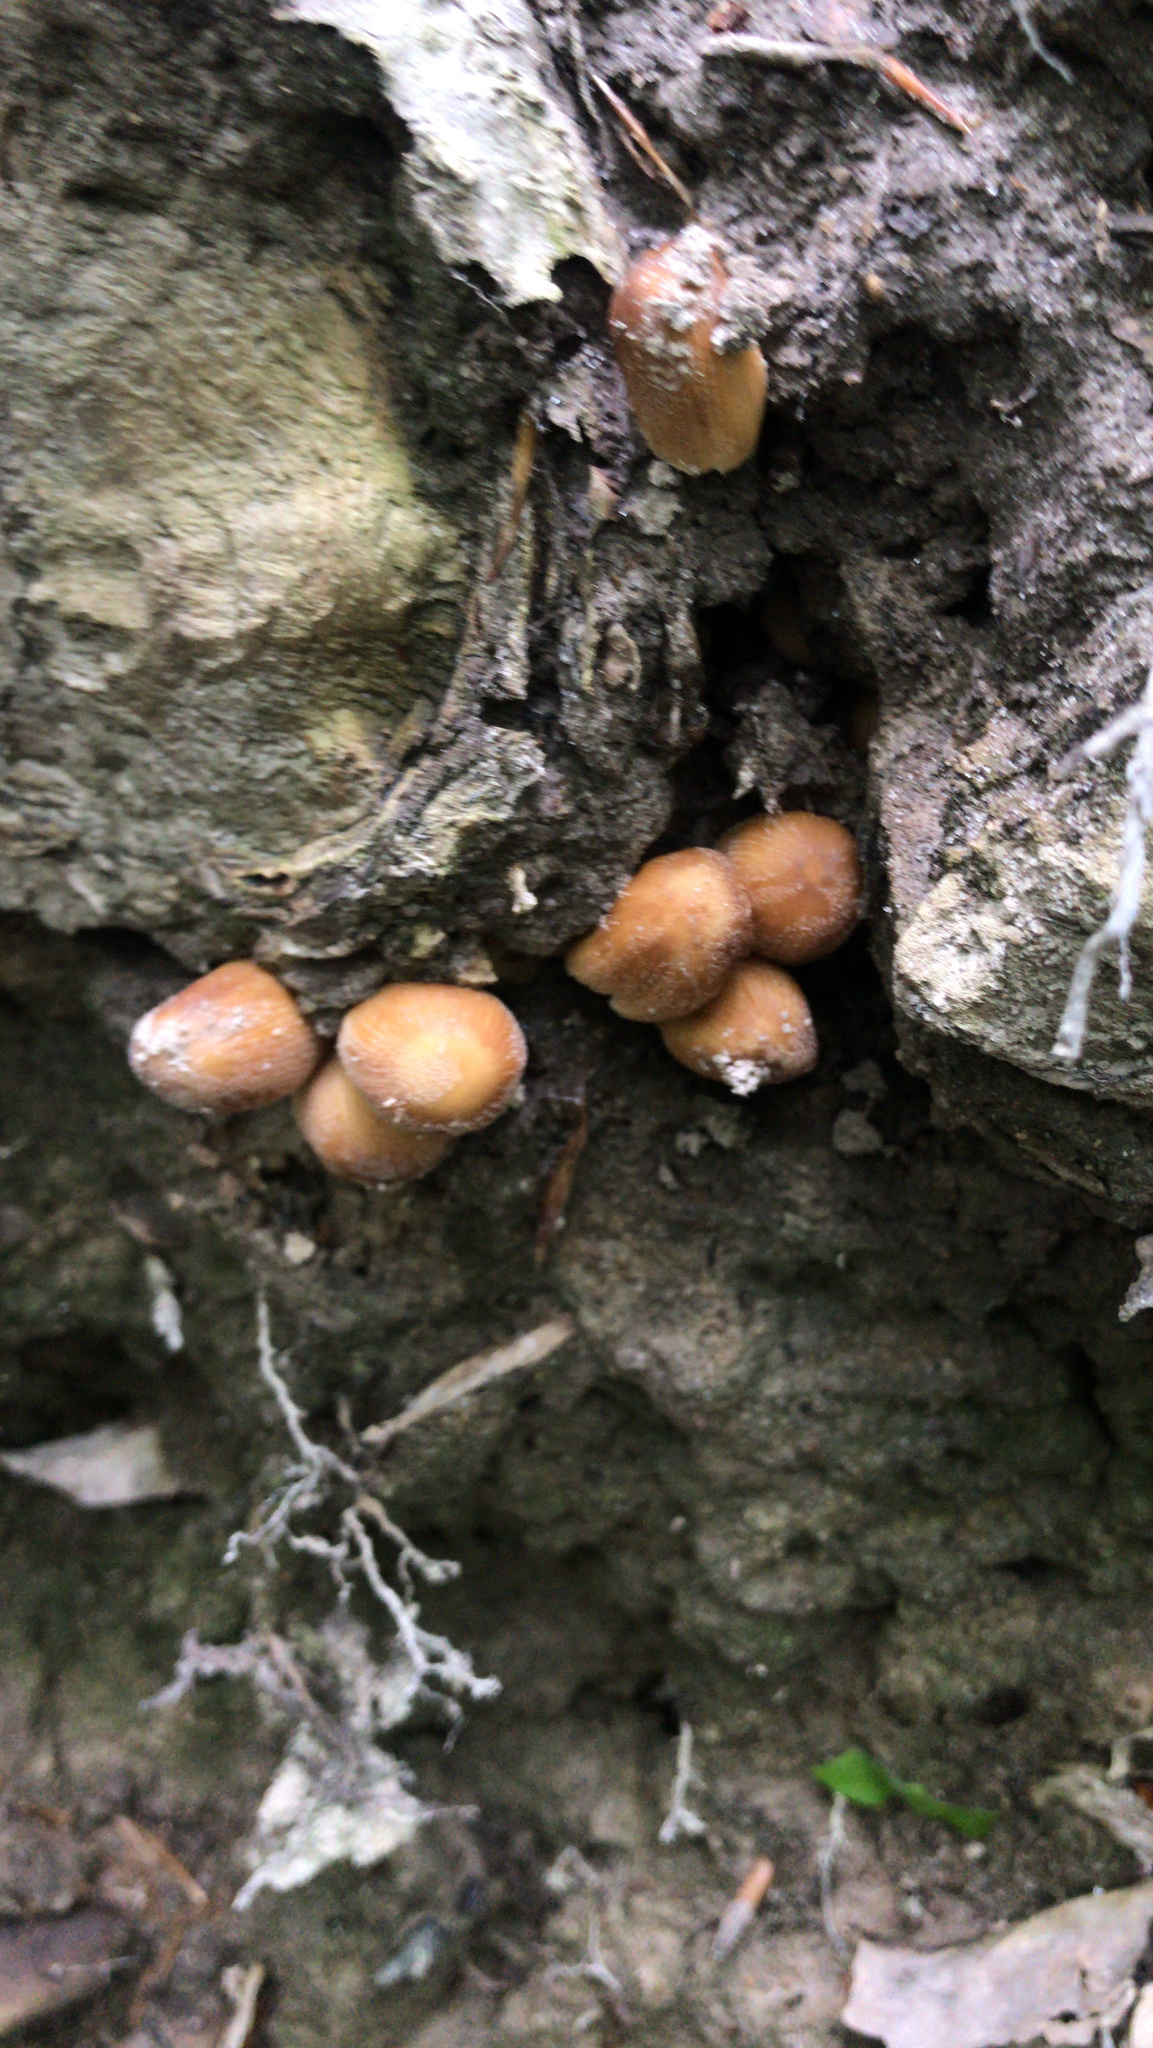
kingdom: Fungi
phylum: Basidiomycota
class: Agaricomycetes
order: Agaricales
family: Psathyrellaceae
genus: Coprinellus
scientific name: Coprinellus micaceus
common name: Glistening ink-cap
